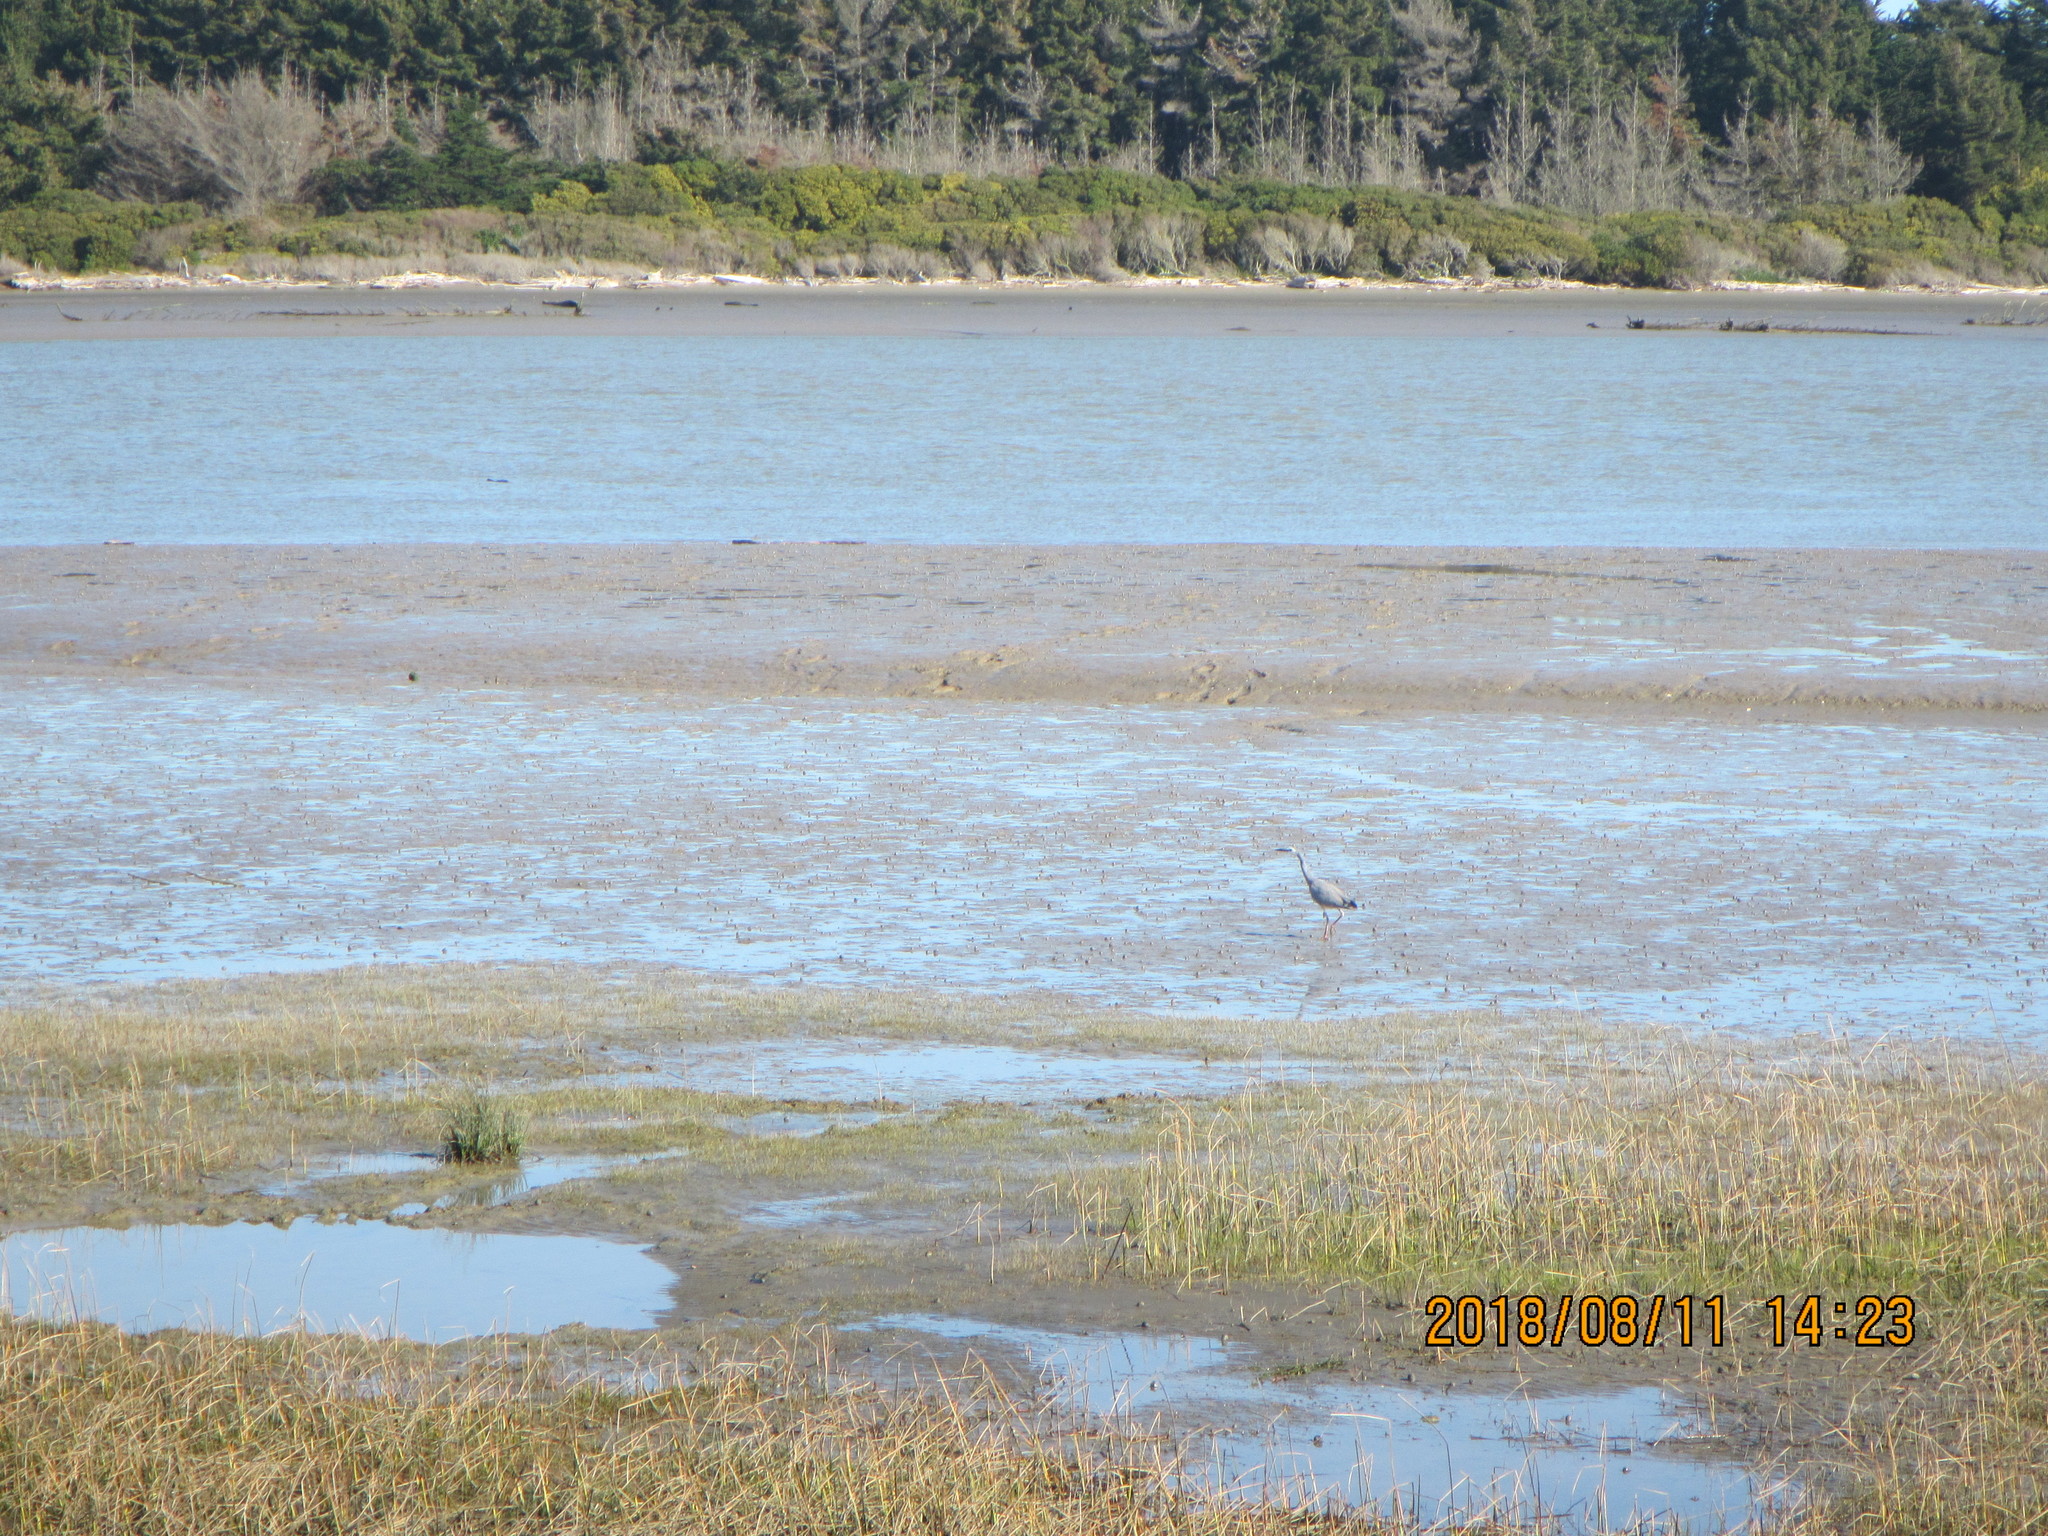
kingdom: Animalia
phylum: Chordata
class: Aves
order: Pelecaniformes
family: Ardeidae
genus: Egretta
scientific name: Egretta novaehollandiae
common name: White-faced heron
